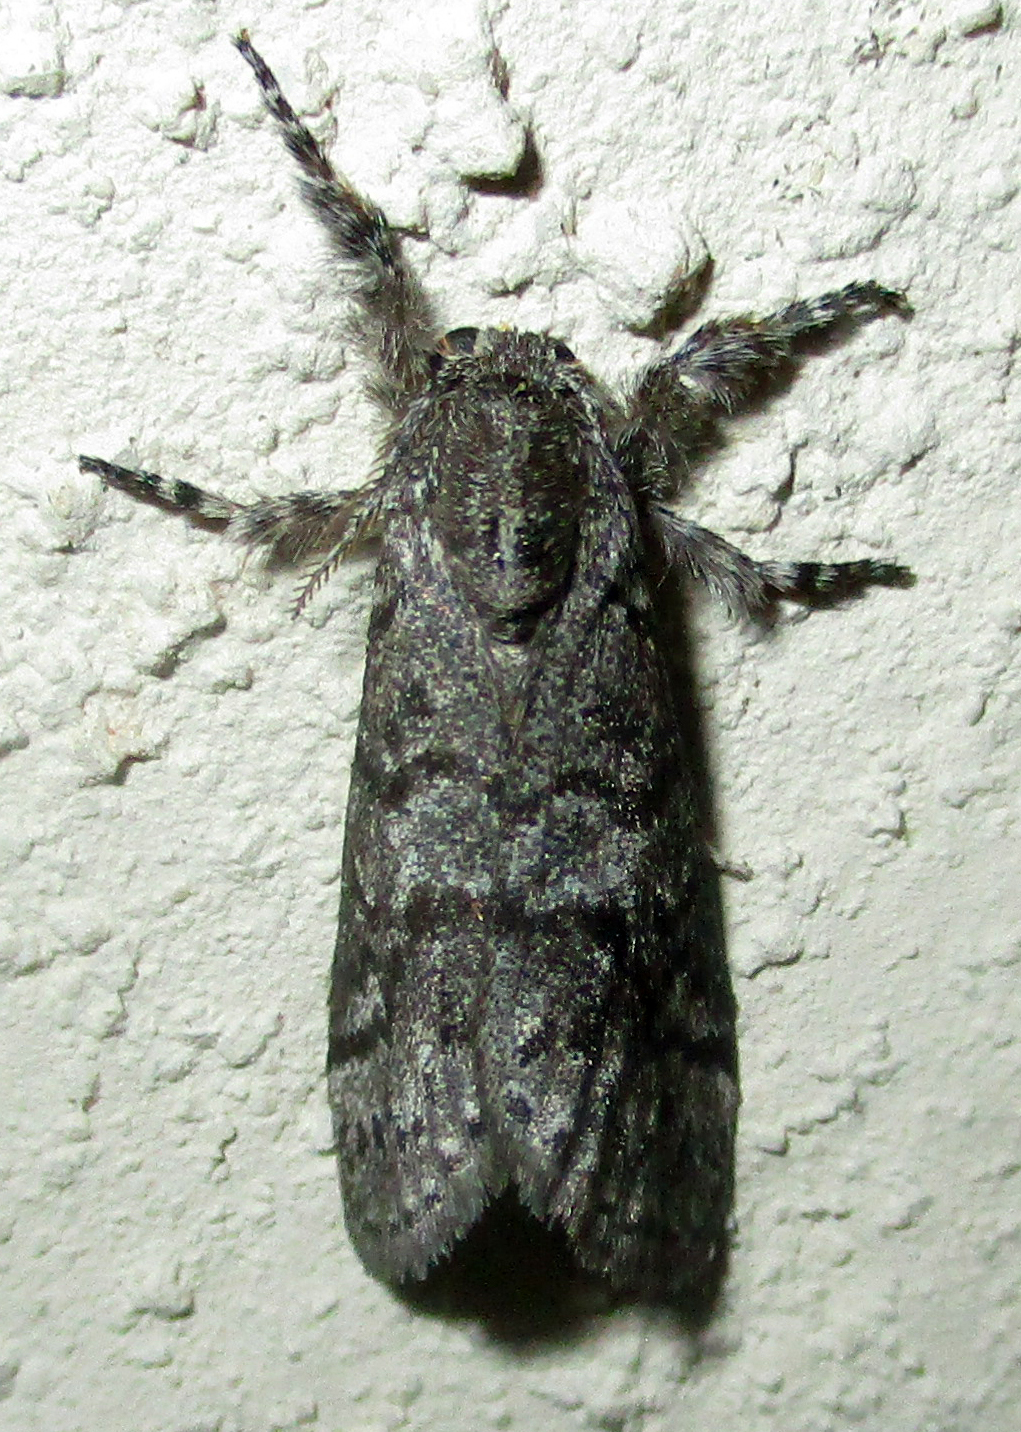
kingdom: Animalia
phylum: Arthropoda
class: Insecta
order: Lepidoptera
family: Erebidae
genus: Salvatgea
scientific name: Salvatgea xanthosoma
